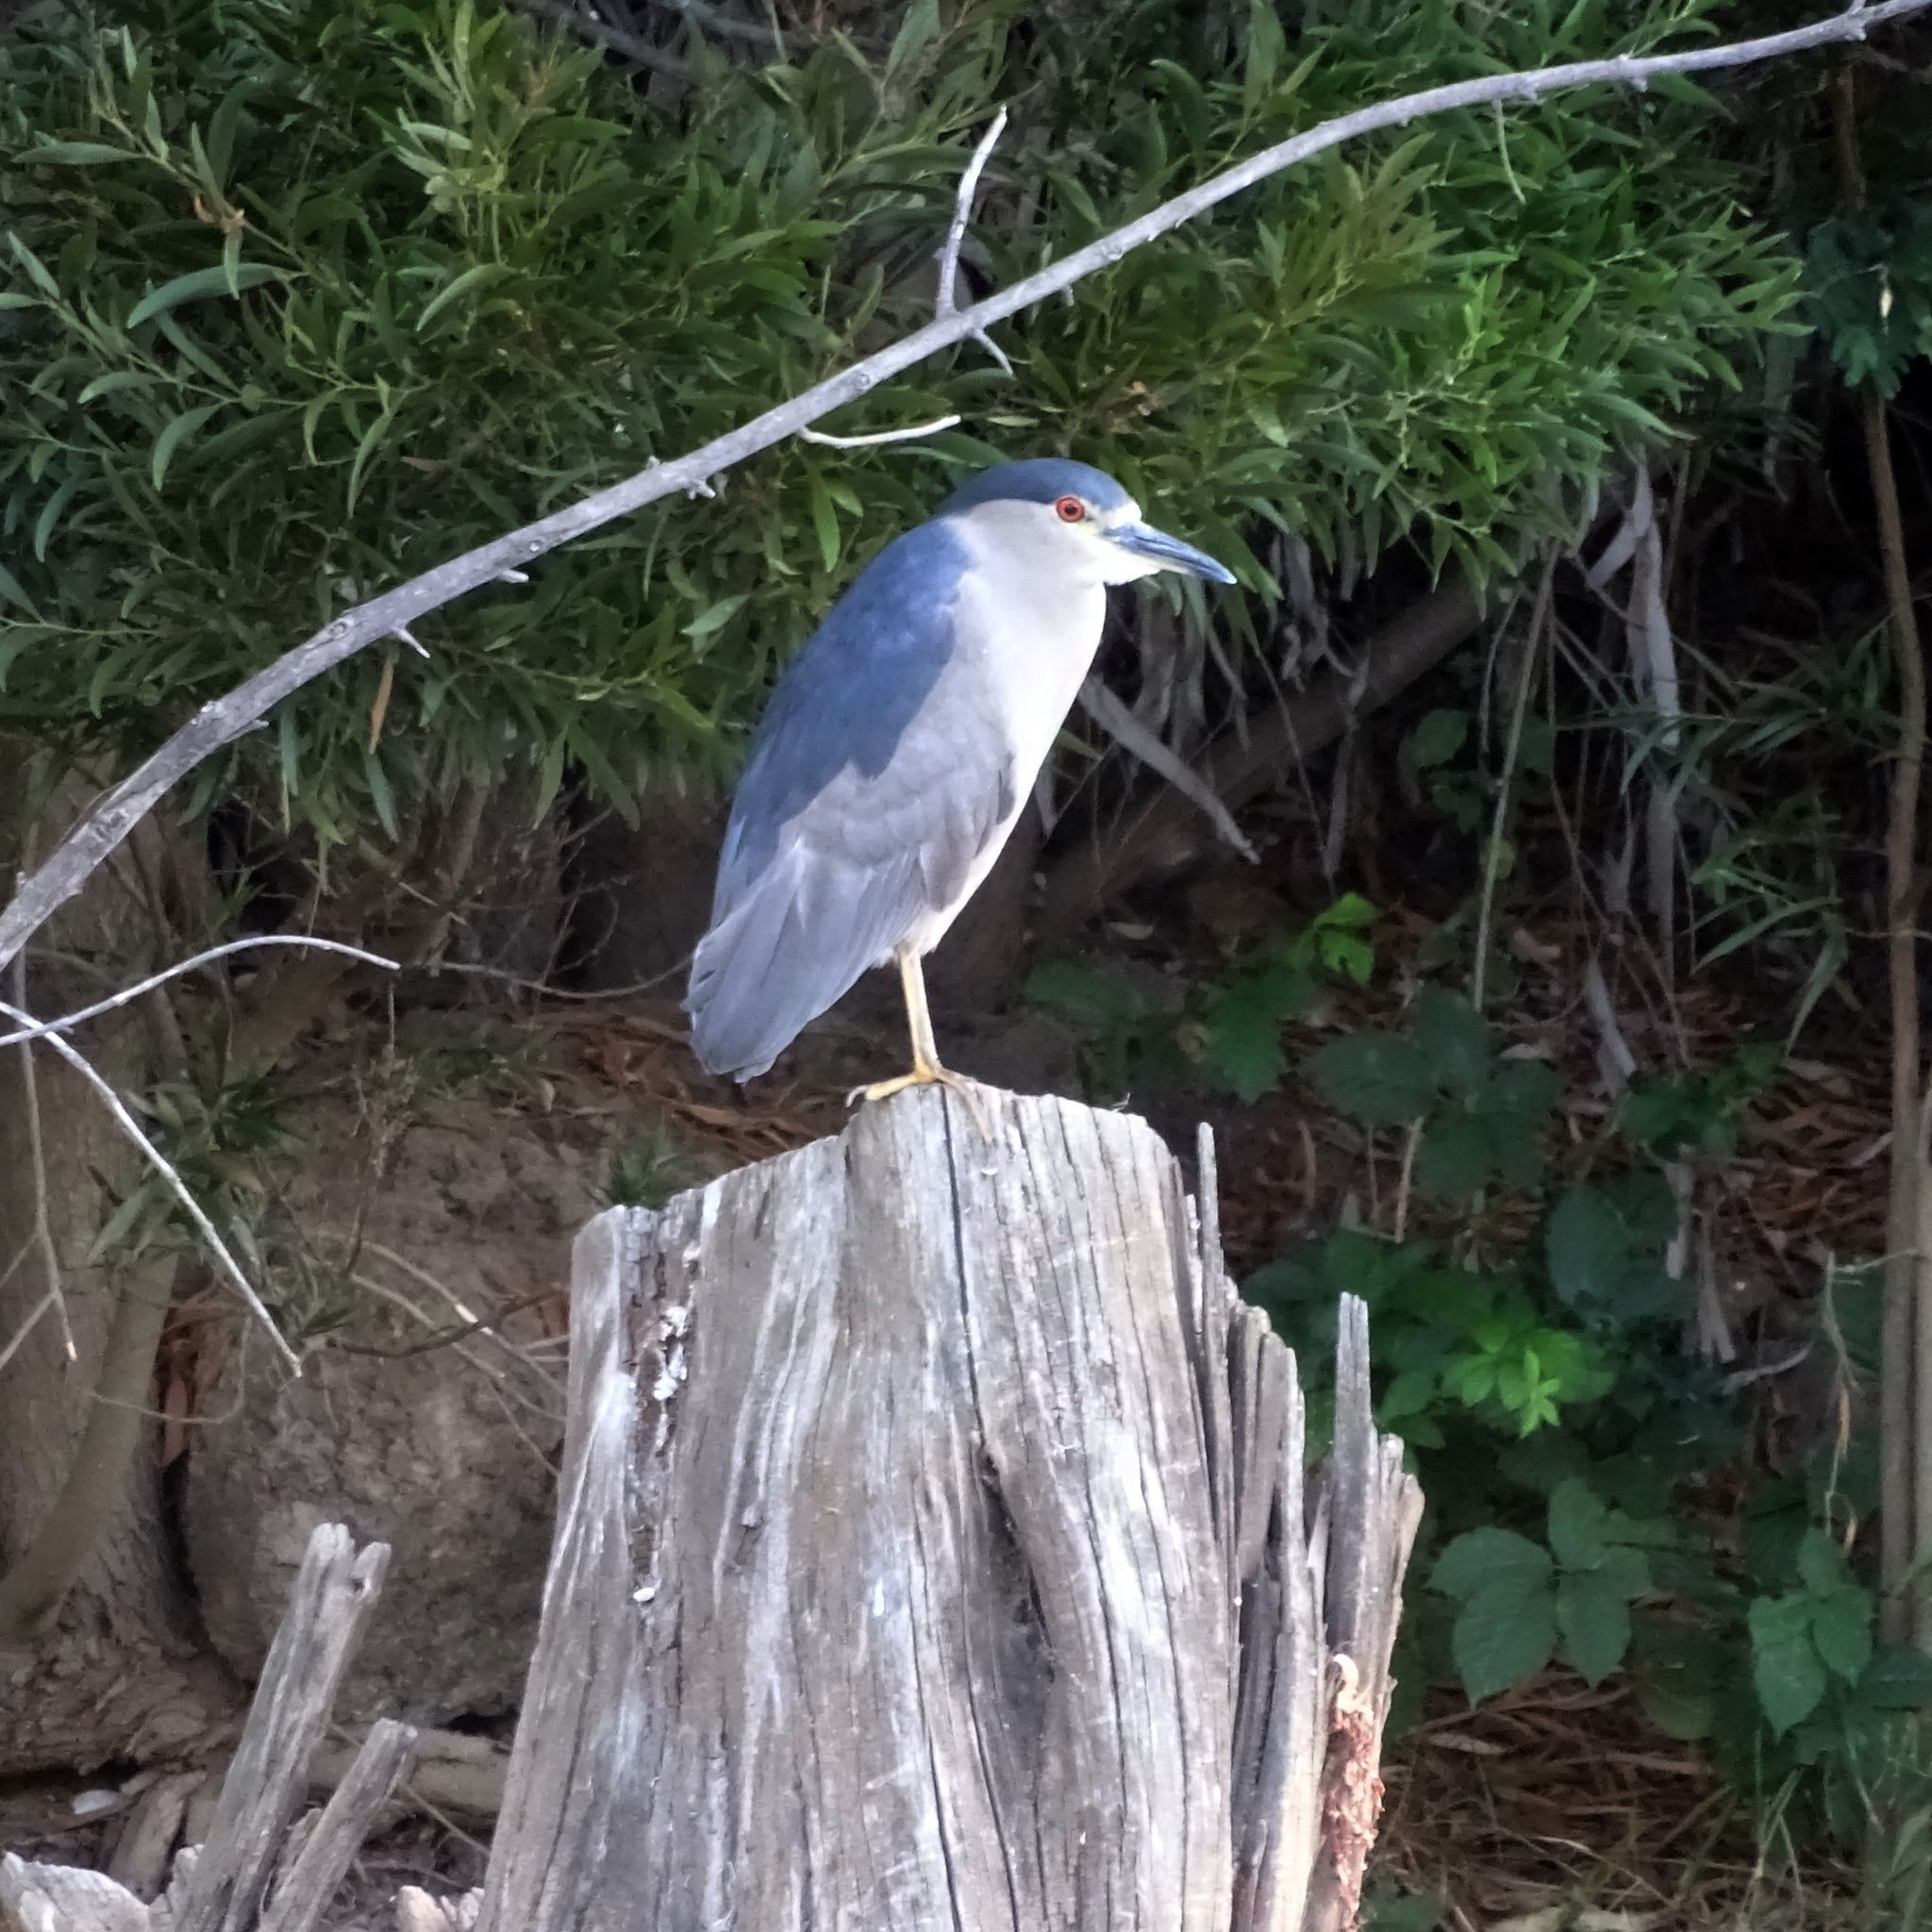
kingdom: Animalia
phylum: Chordata
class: Aves
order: Pelecaniformes
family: Ardeidae
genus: Nycticorax
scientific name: Nycticorax nycticorax
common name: Black-crowned night heron
